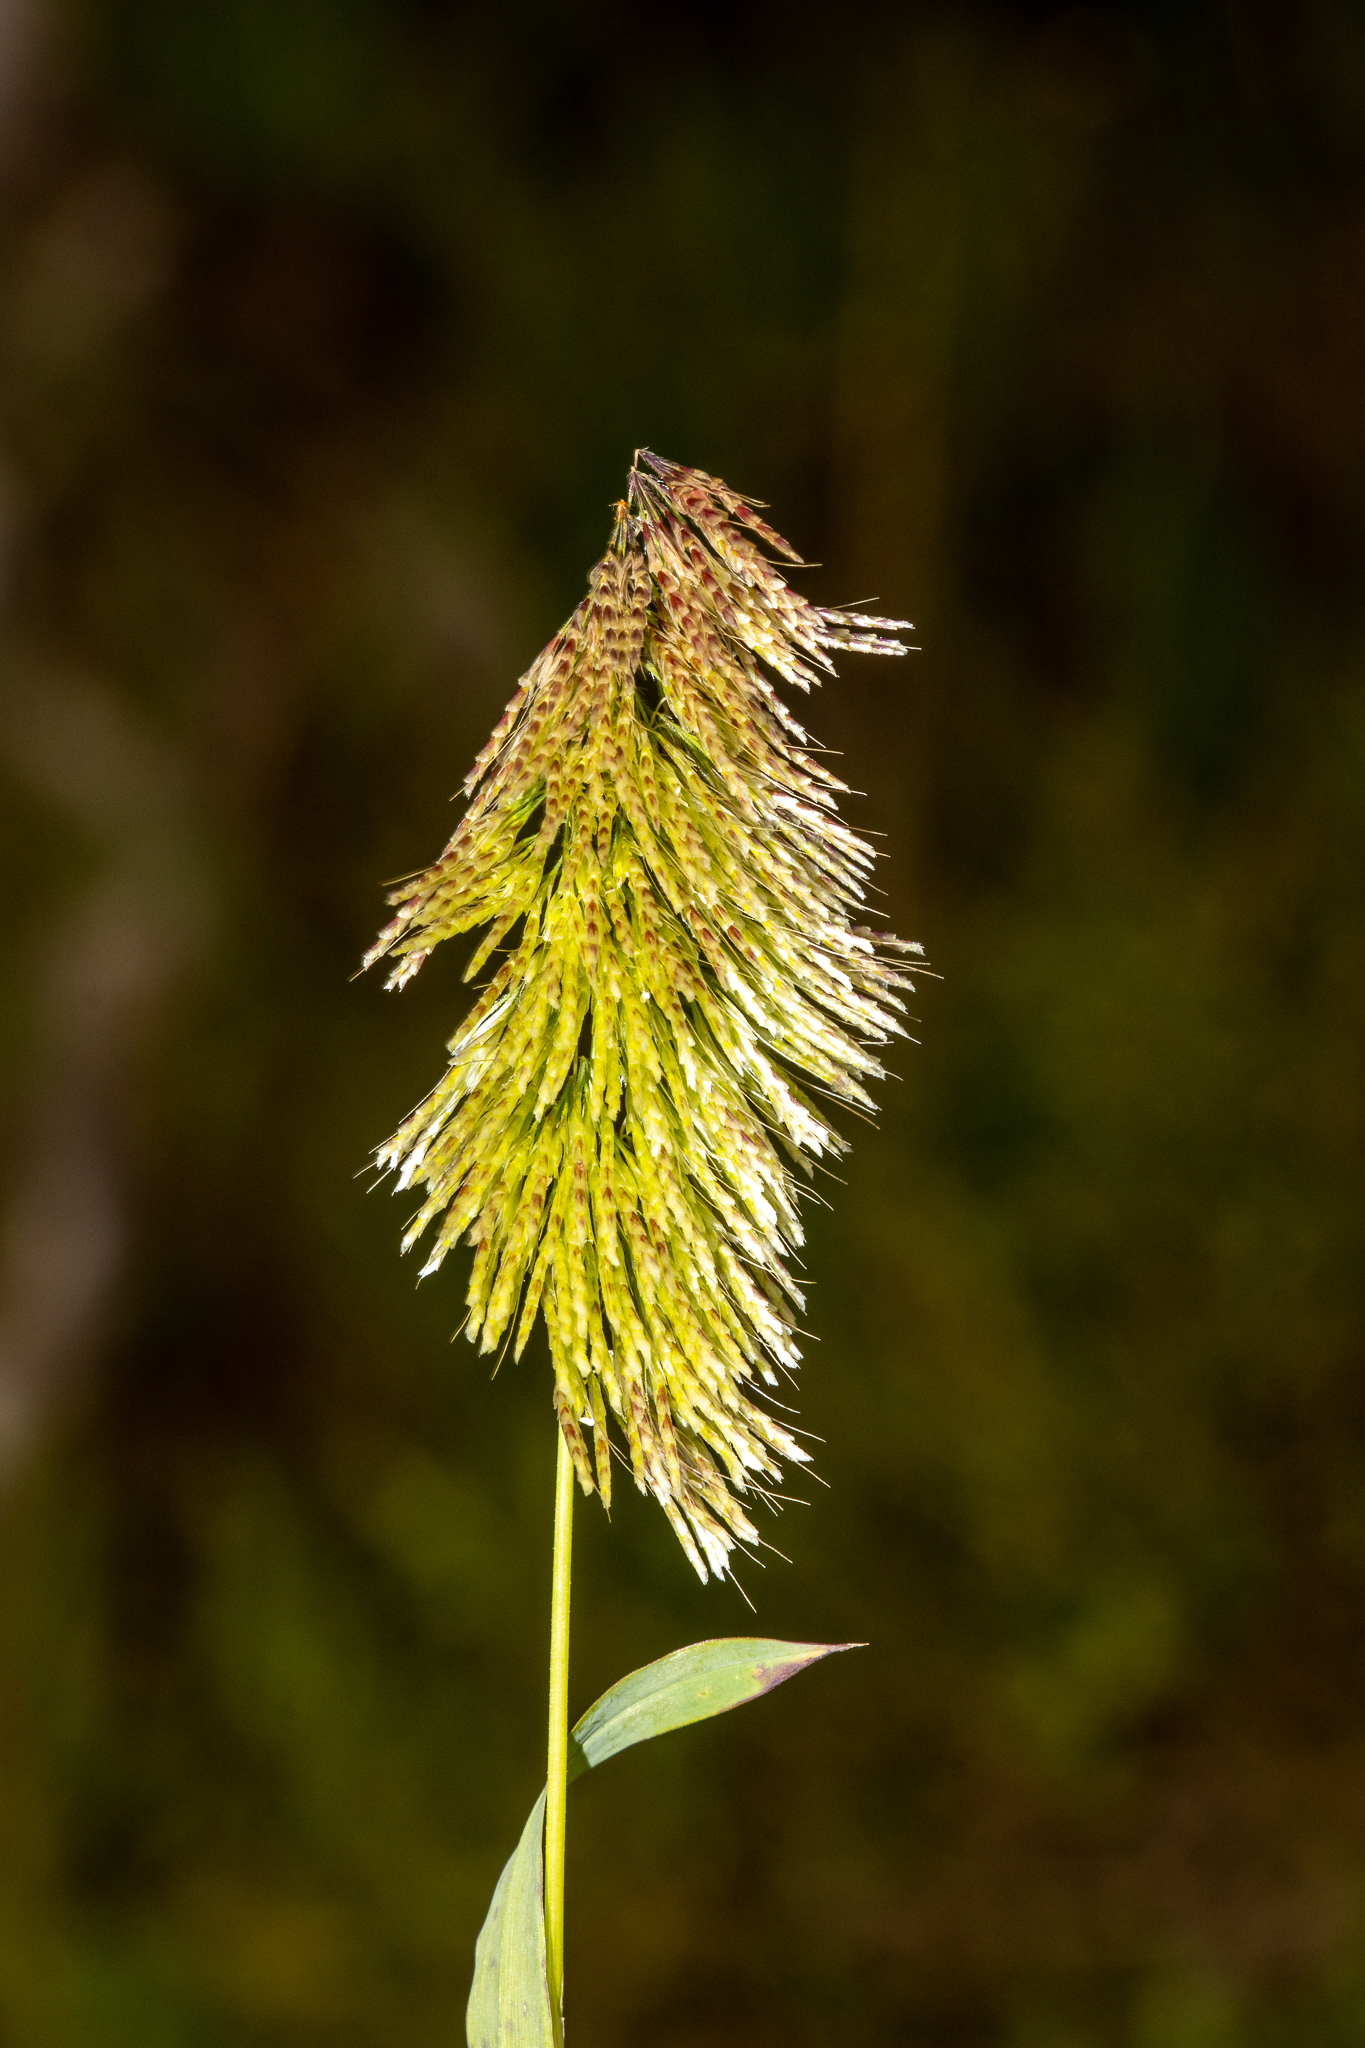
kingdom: Plantae
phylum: Tracheophyta
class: Liliopsida
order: Poales
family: Poaceae
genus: Lamarckia
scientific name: Lamarckia aurea
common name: Golden dog's-tail
